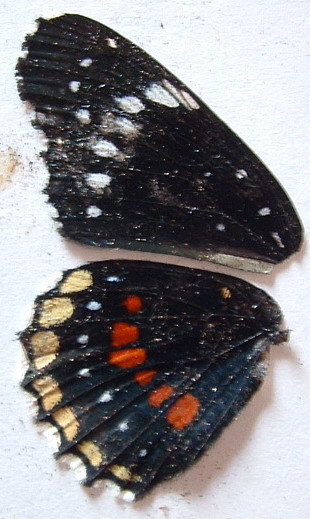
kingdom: Animalia
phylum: Arthropoda
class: Insecta
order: Lepidoptera
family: Nymphalidae
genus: Chlosyne
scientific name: Chlosyne hippodrome
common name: Simple patch
